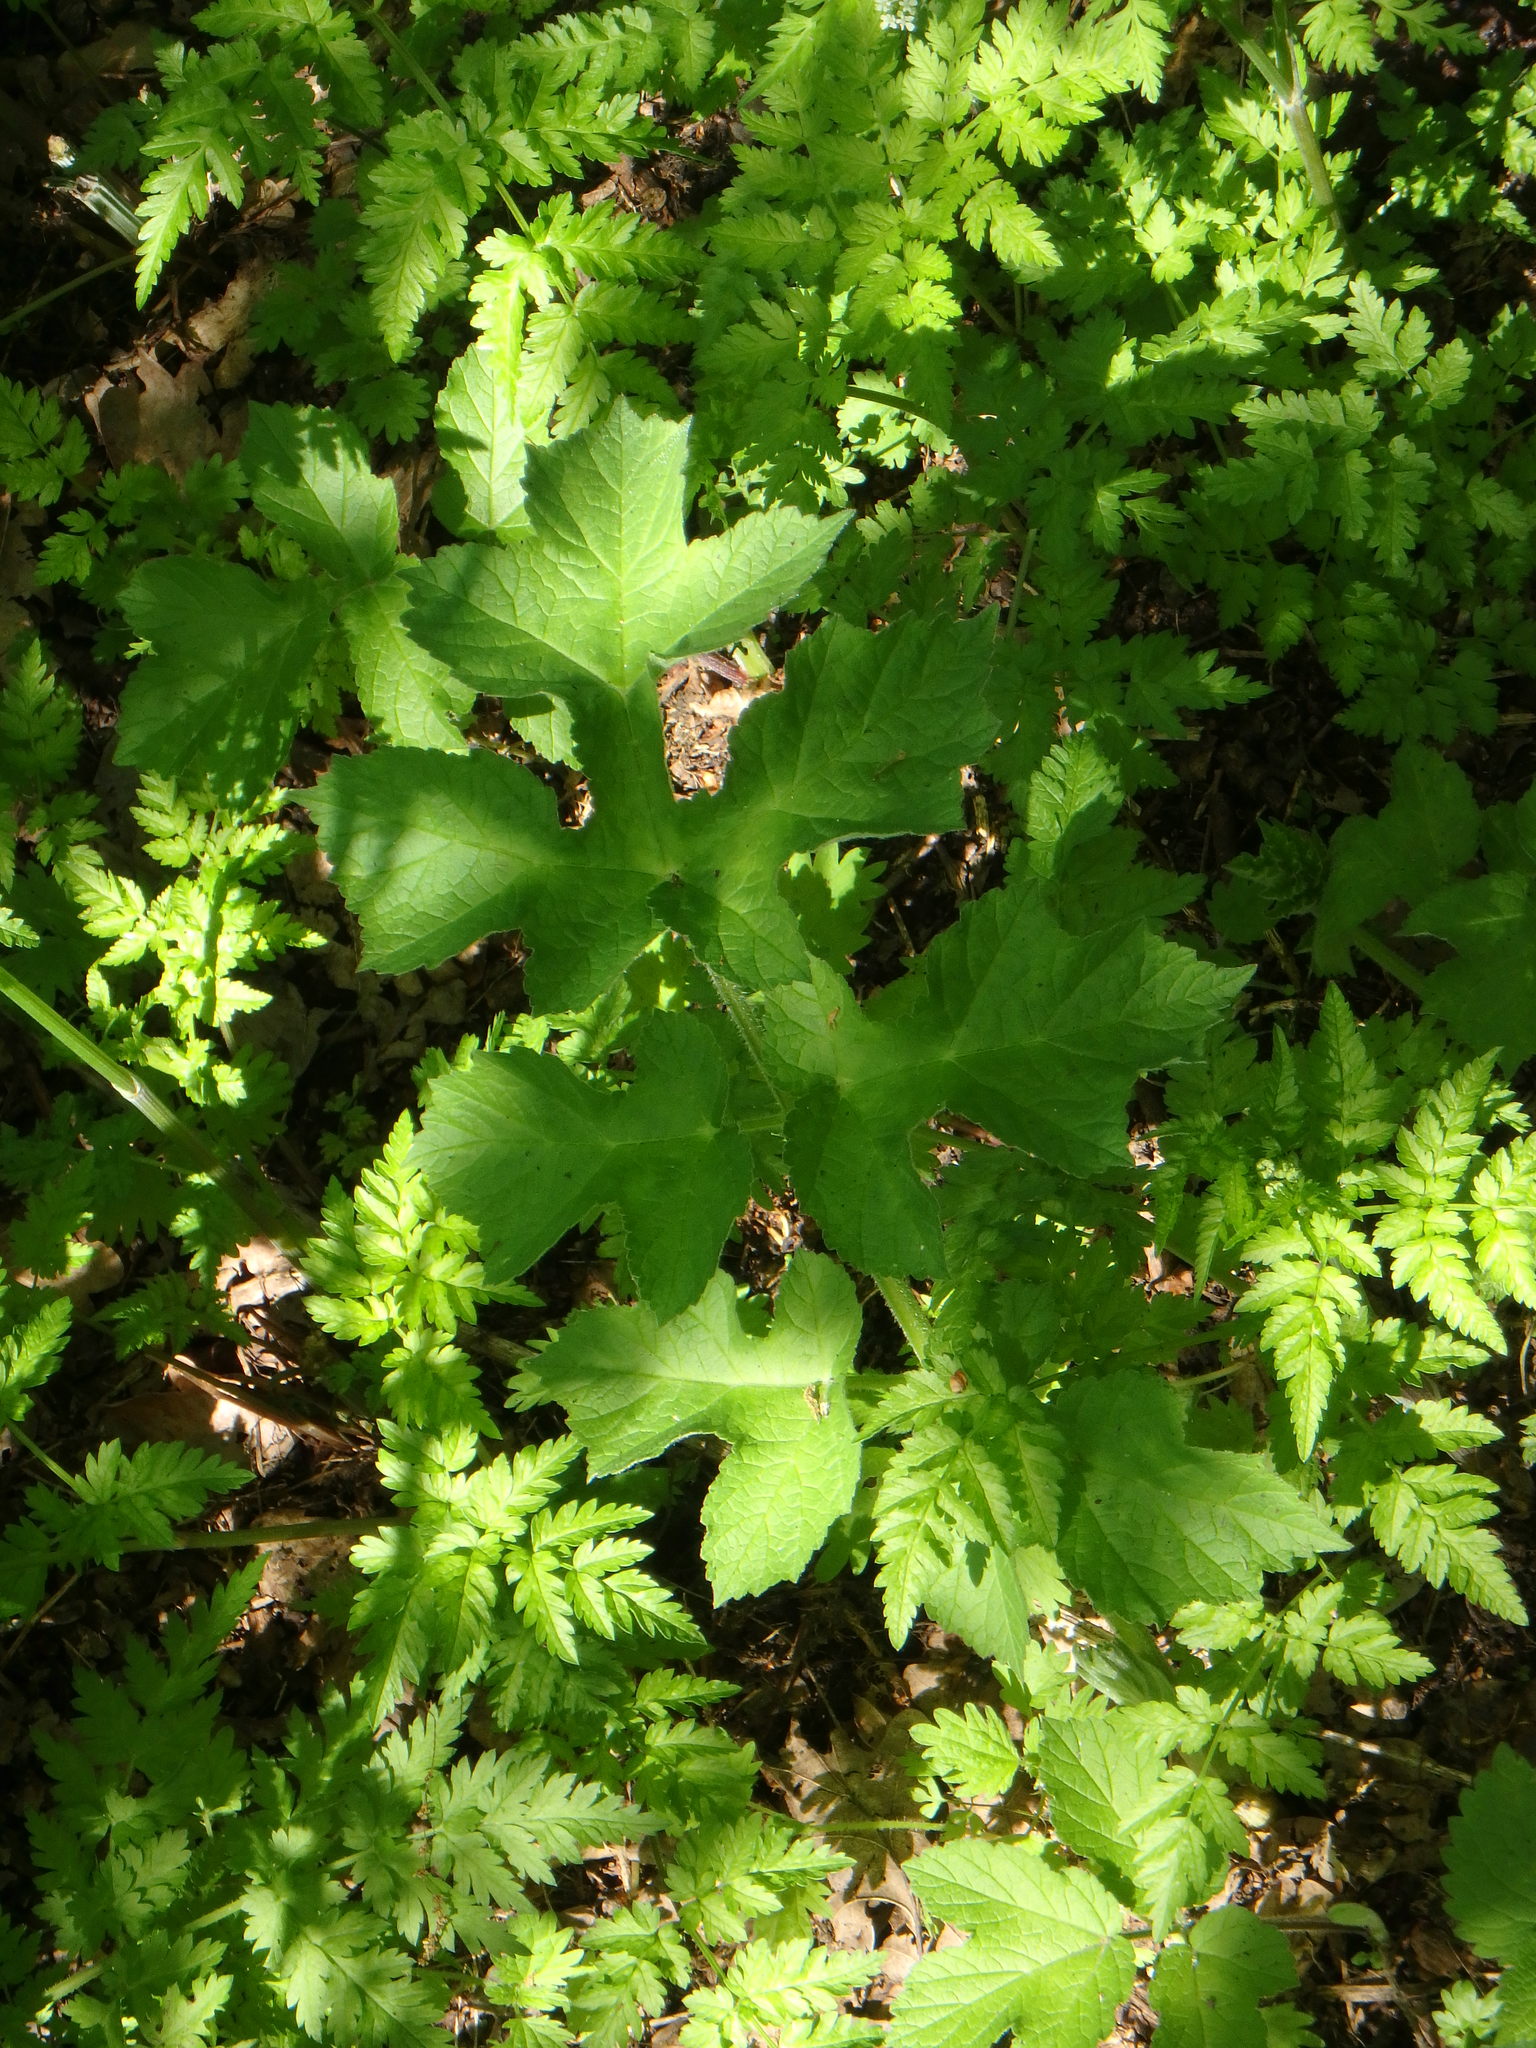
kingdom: Plantae
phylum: Tracheophyta
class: Magnoliopsida
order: Apiales
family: Apiaceae
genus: Heracleum
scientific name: Heracleum sphondylium
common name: Hogweed
